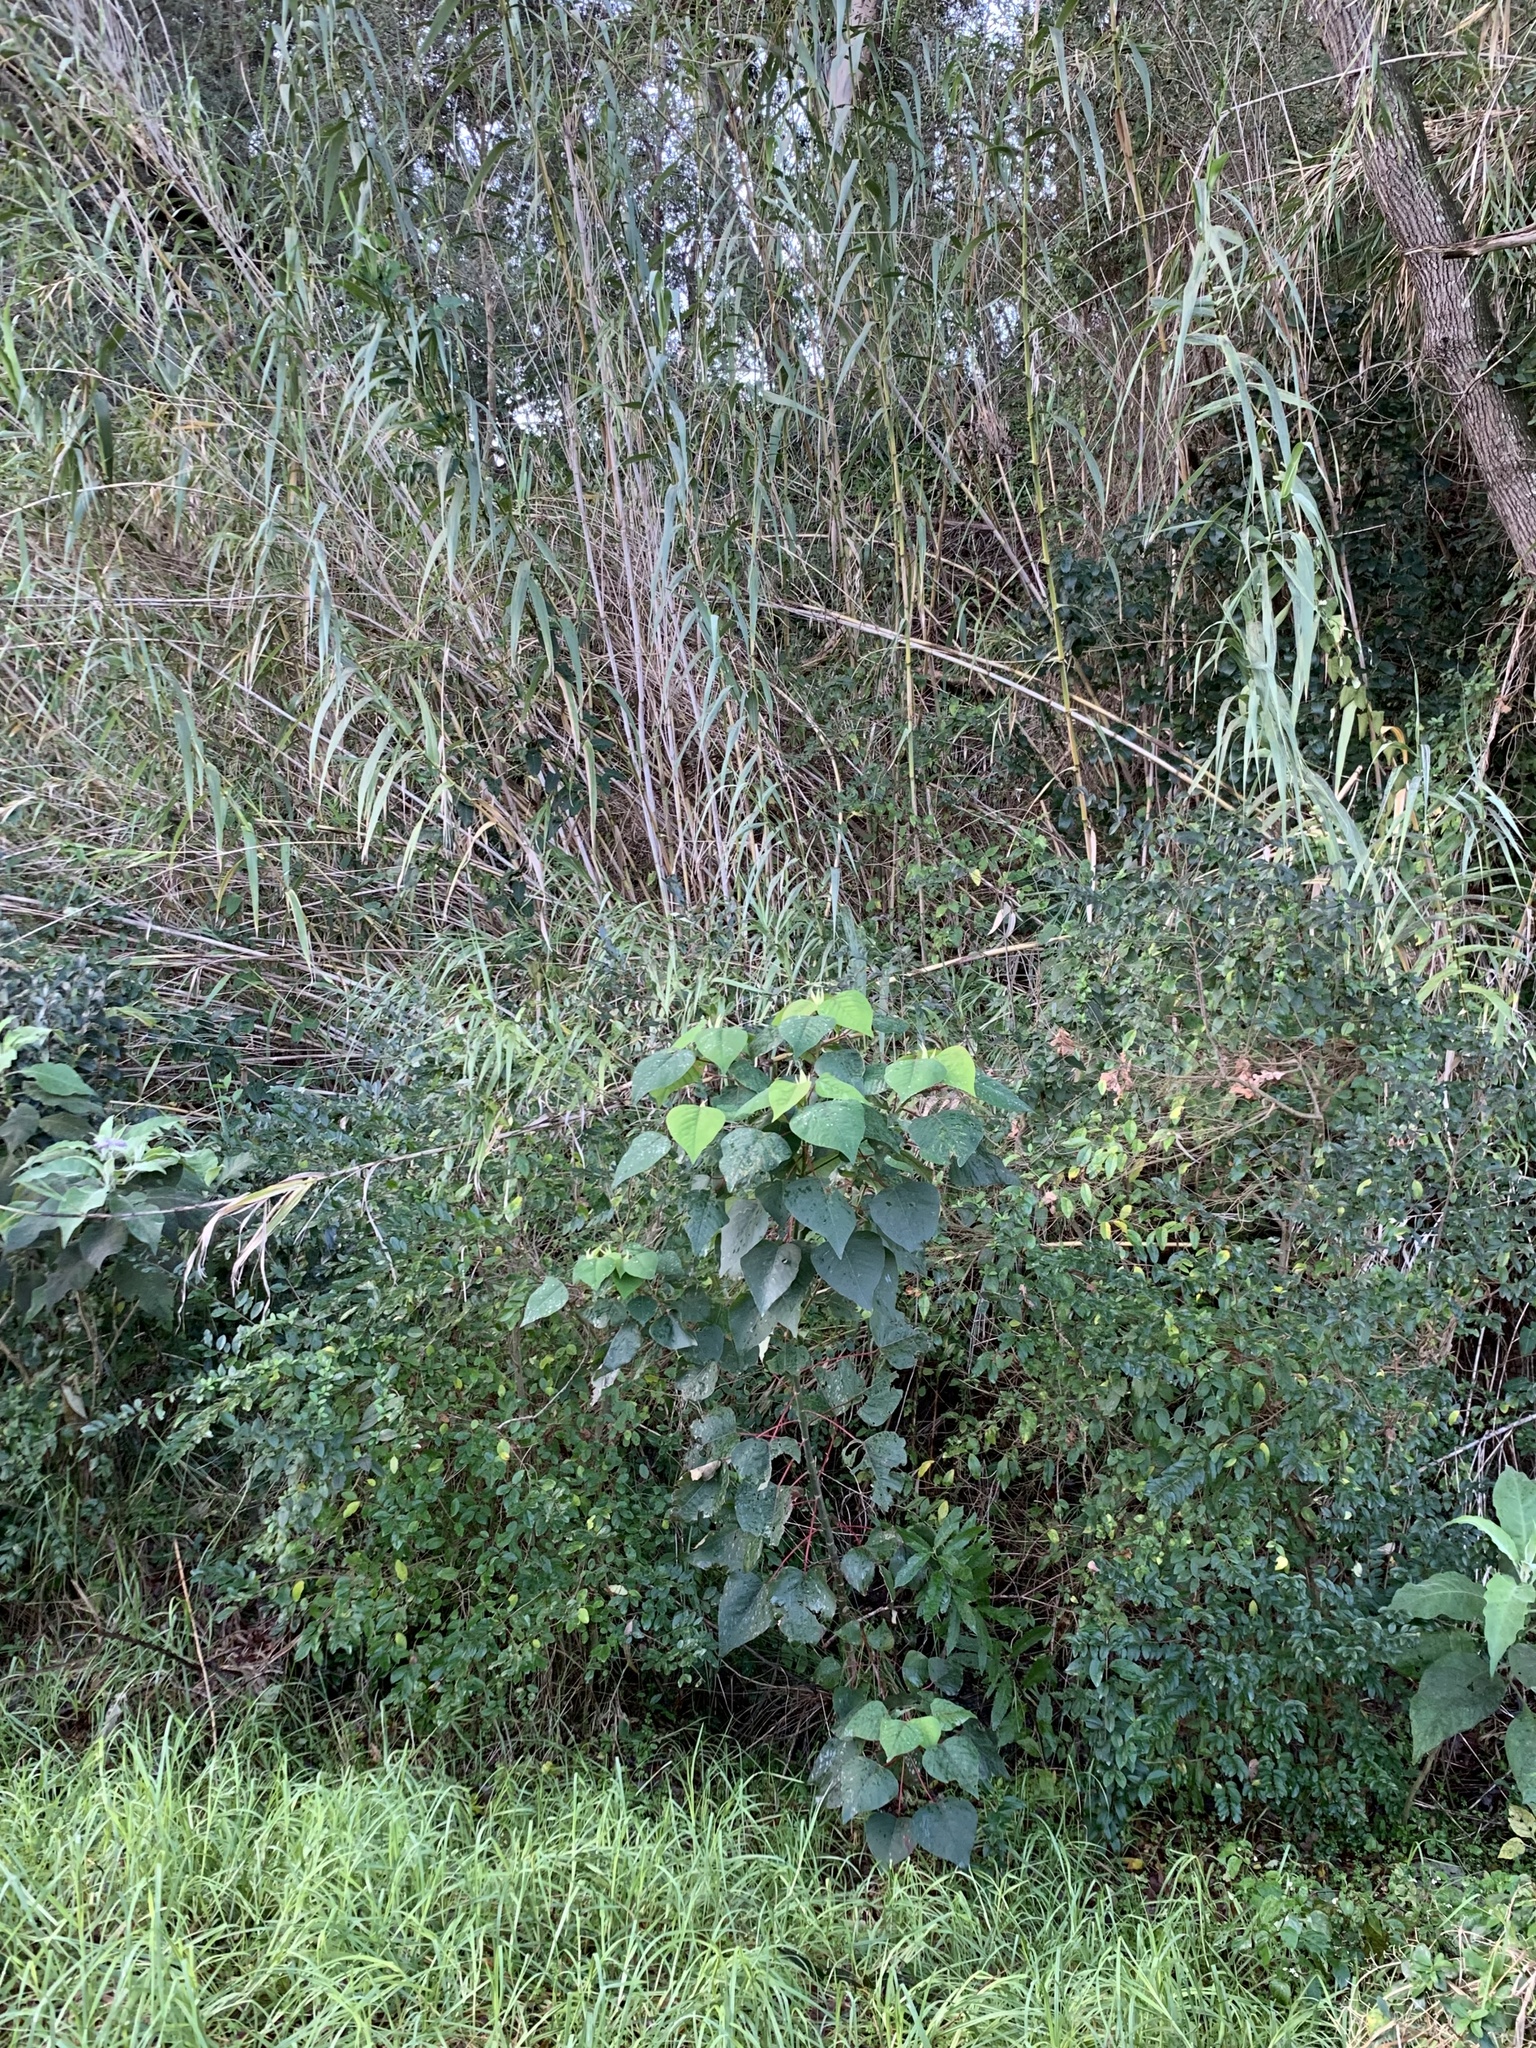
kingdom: Plantae
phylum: Tracheophyta
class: Magnoliopsida
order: Malpighiales
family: Euphorbiaceae
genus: Homalanthus
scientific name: Homalanthus populifolius
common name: Queensland poplar
